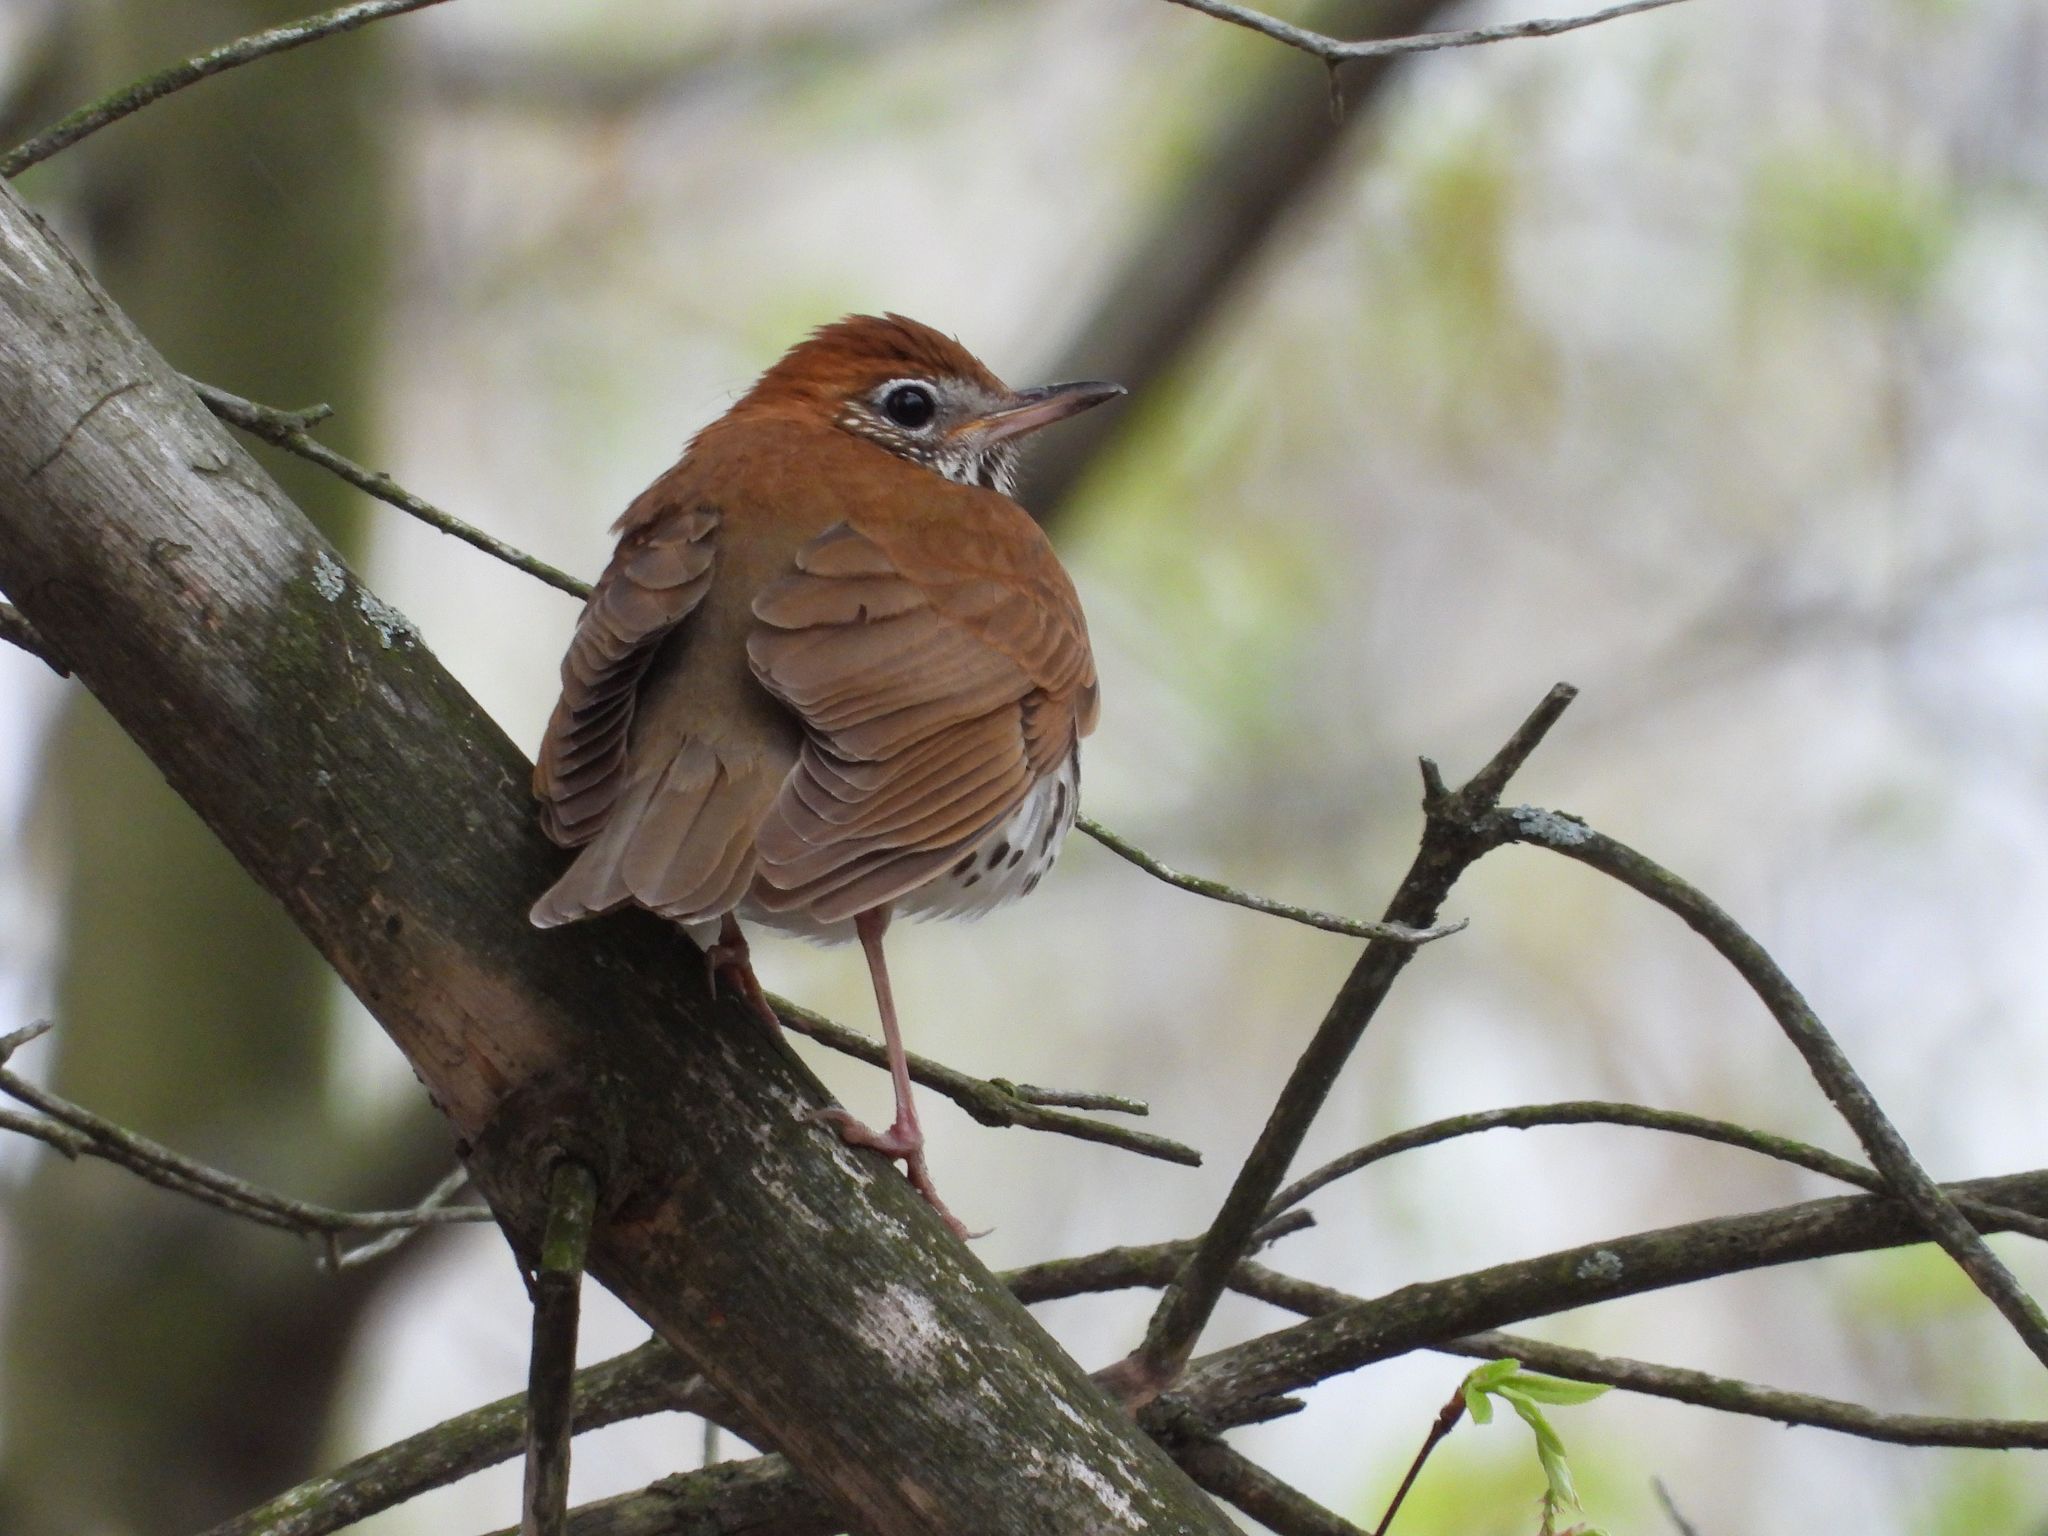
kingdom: Animalia
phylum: Chordata
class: Aves
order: Passeriformes
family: Turdidae
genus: Hylocichla
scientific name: Hylocichla mustelina
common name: Wood thrush
